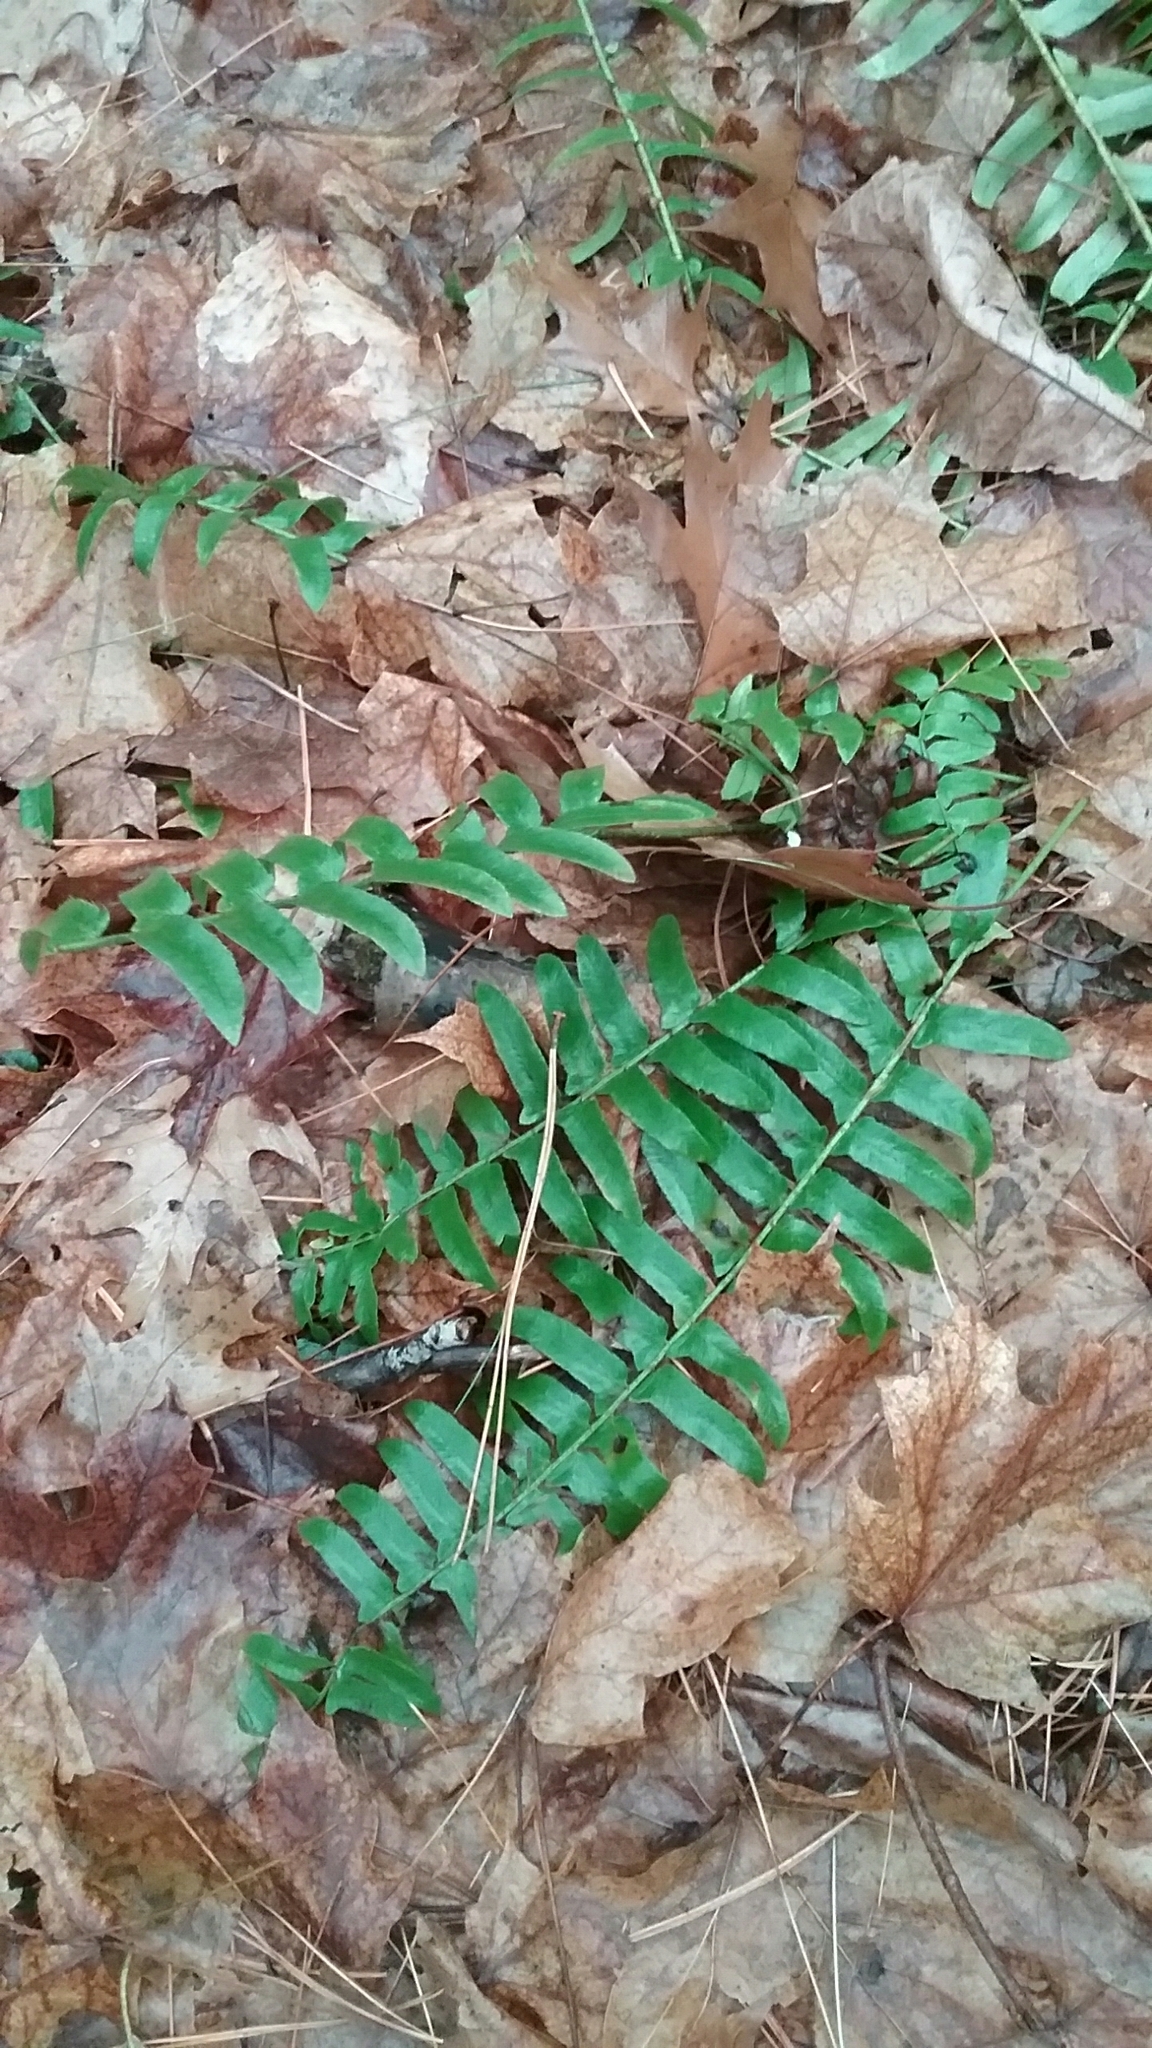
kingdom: Plantae
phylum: Tracheophyta
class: Polypodiopsida
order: Polypodiales
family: Dryopteridaceae
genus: Polystichum
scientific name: Polystichum acrostichoides
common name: Christmas fern
